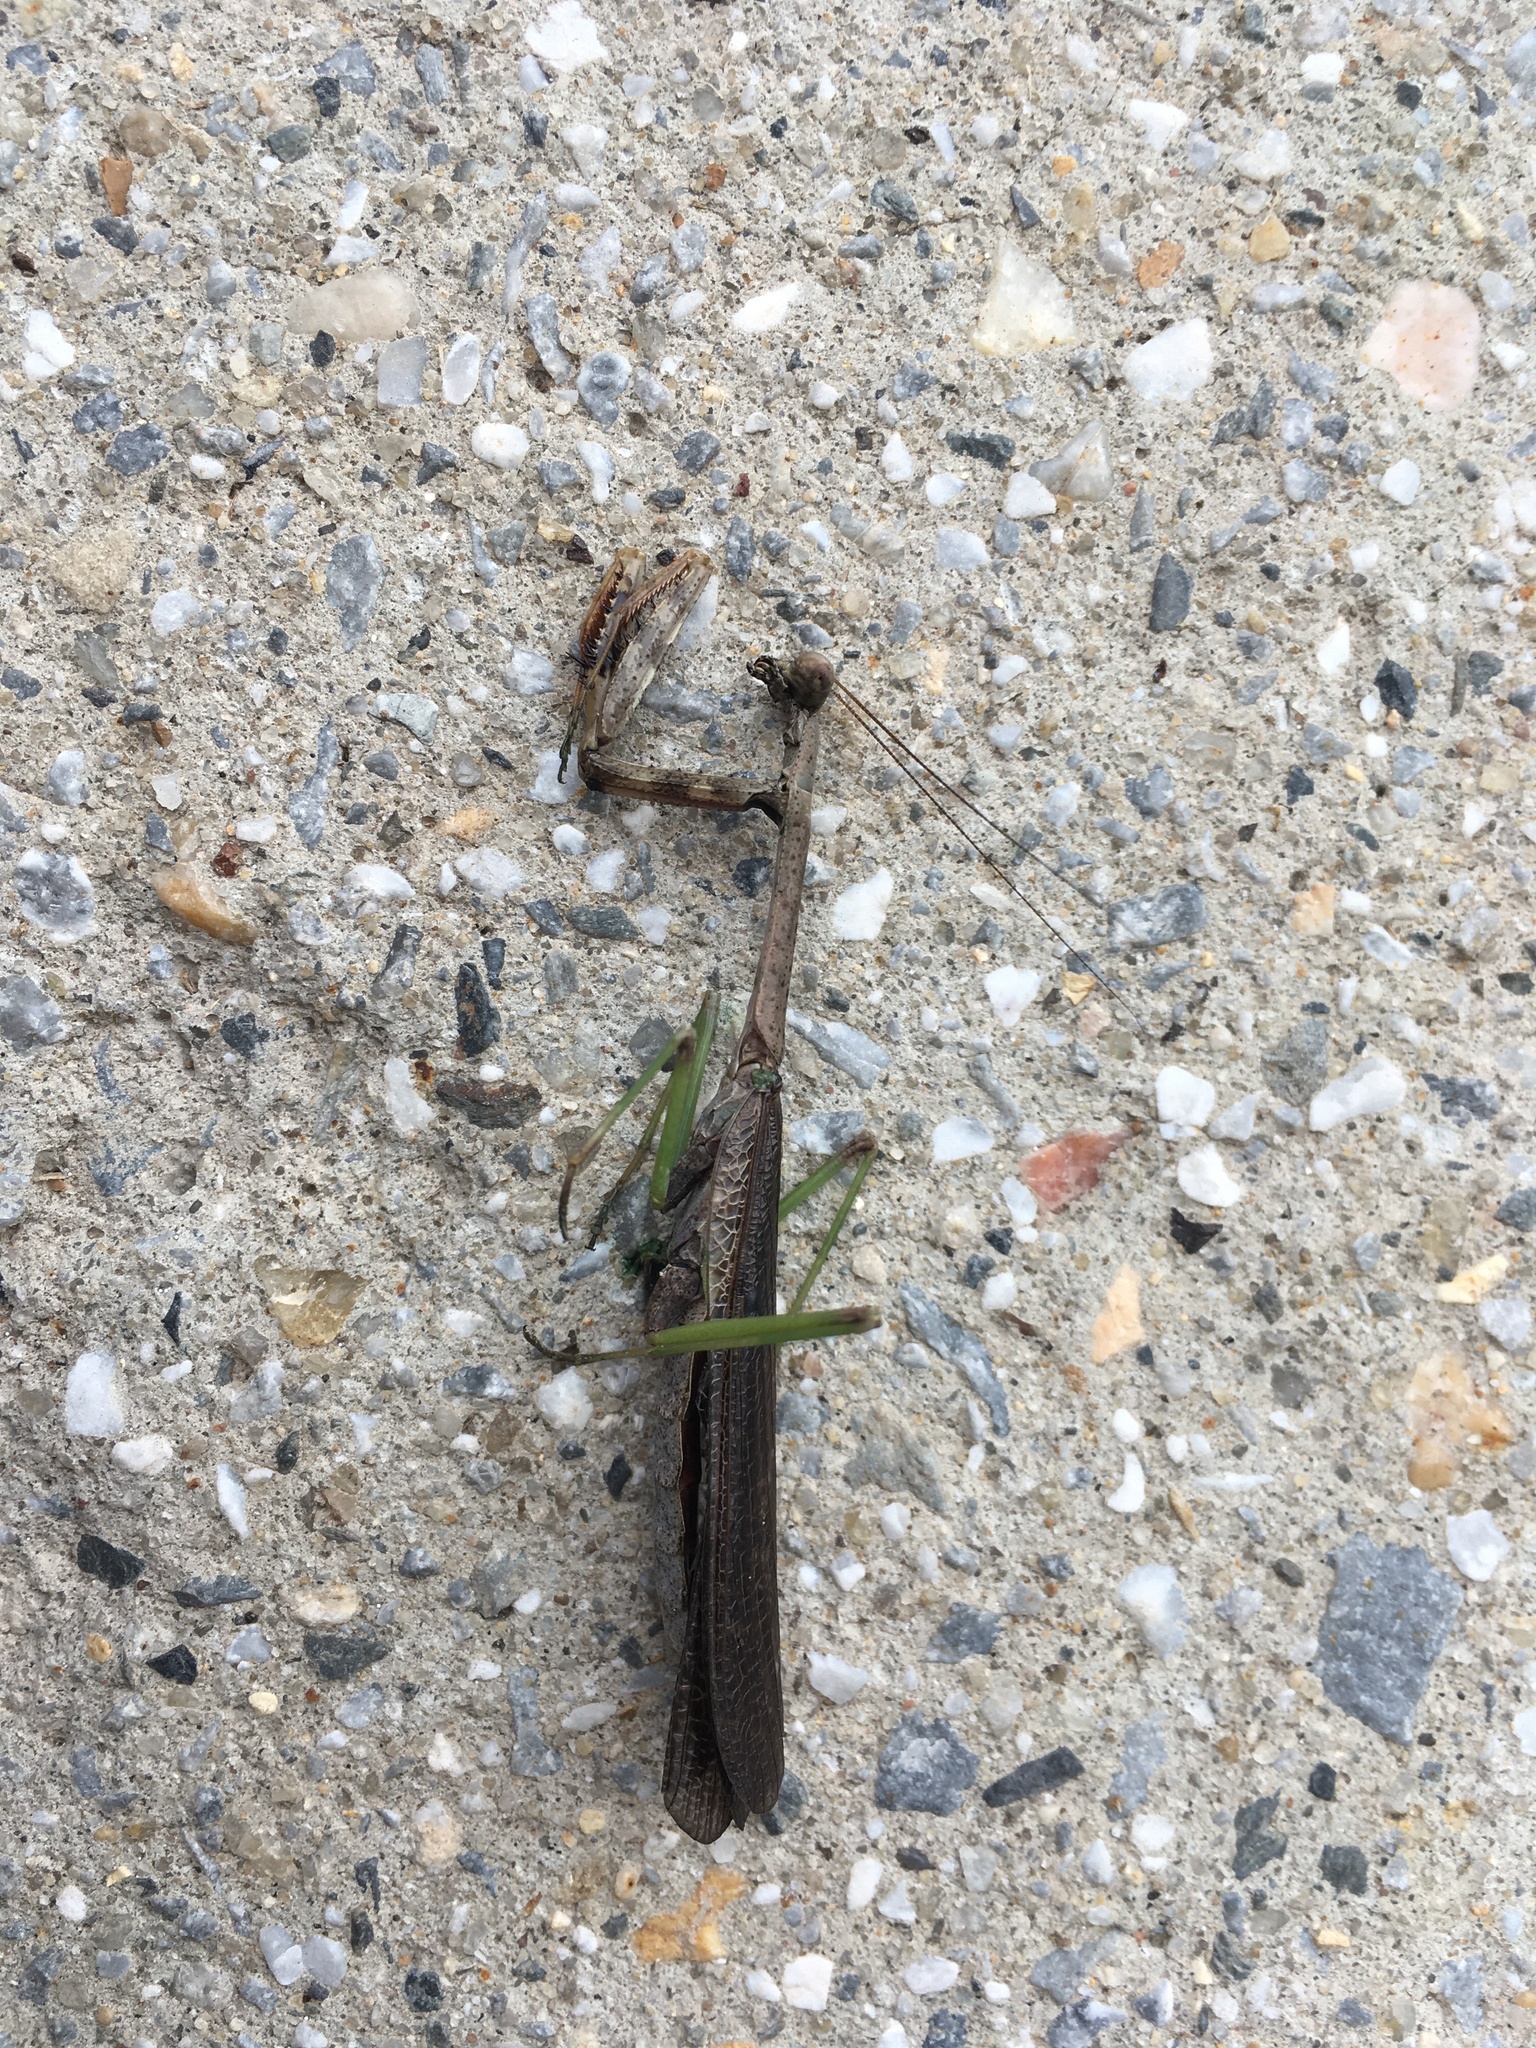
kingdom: Animalia
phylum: Arthropoda
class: Insecta
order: Mantodea
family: Mantidae
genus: Stagmomantis
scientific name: Stagmomantis carolina
